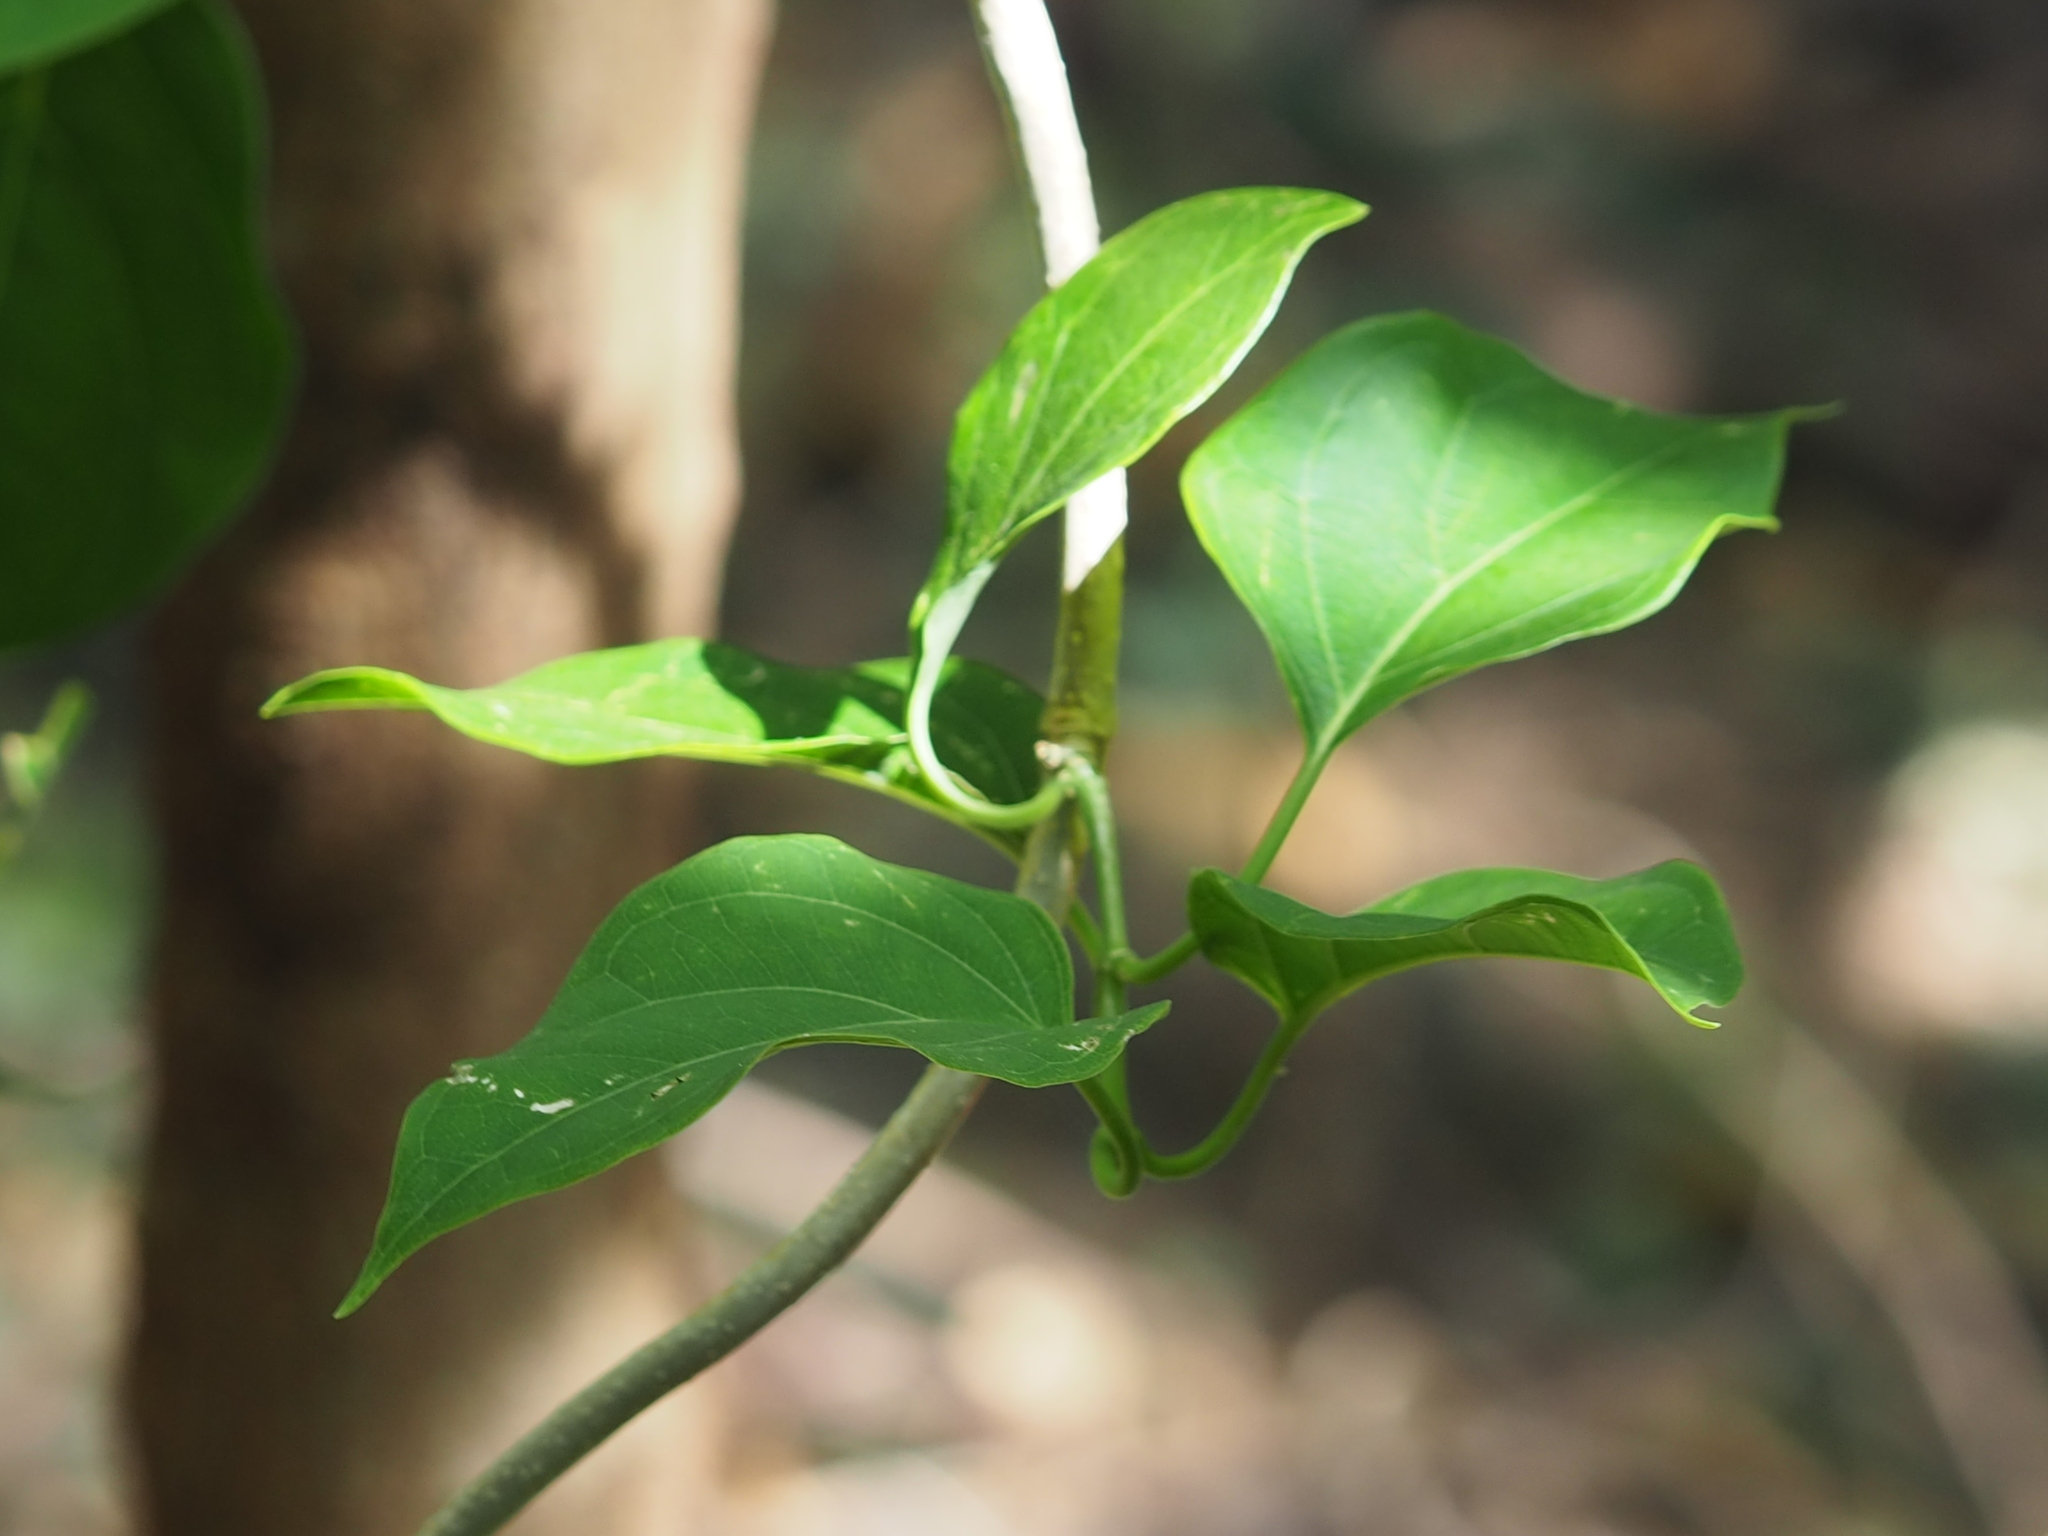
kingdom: Plantae
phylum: Tracheophyta
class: Magnoliopsida
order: Gentianales
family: Apocynaceae
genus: Stephanotis
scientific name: Stephanotis volubilis
